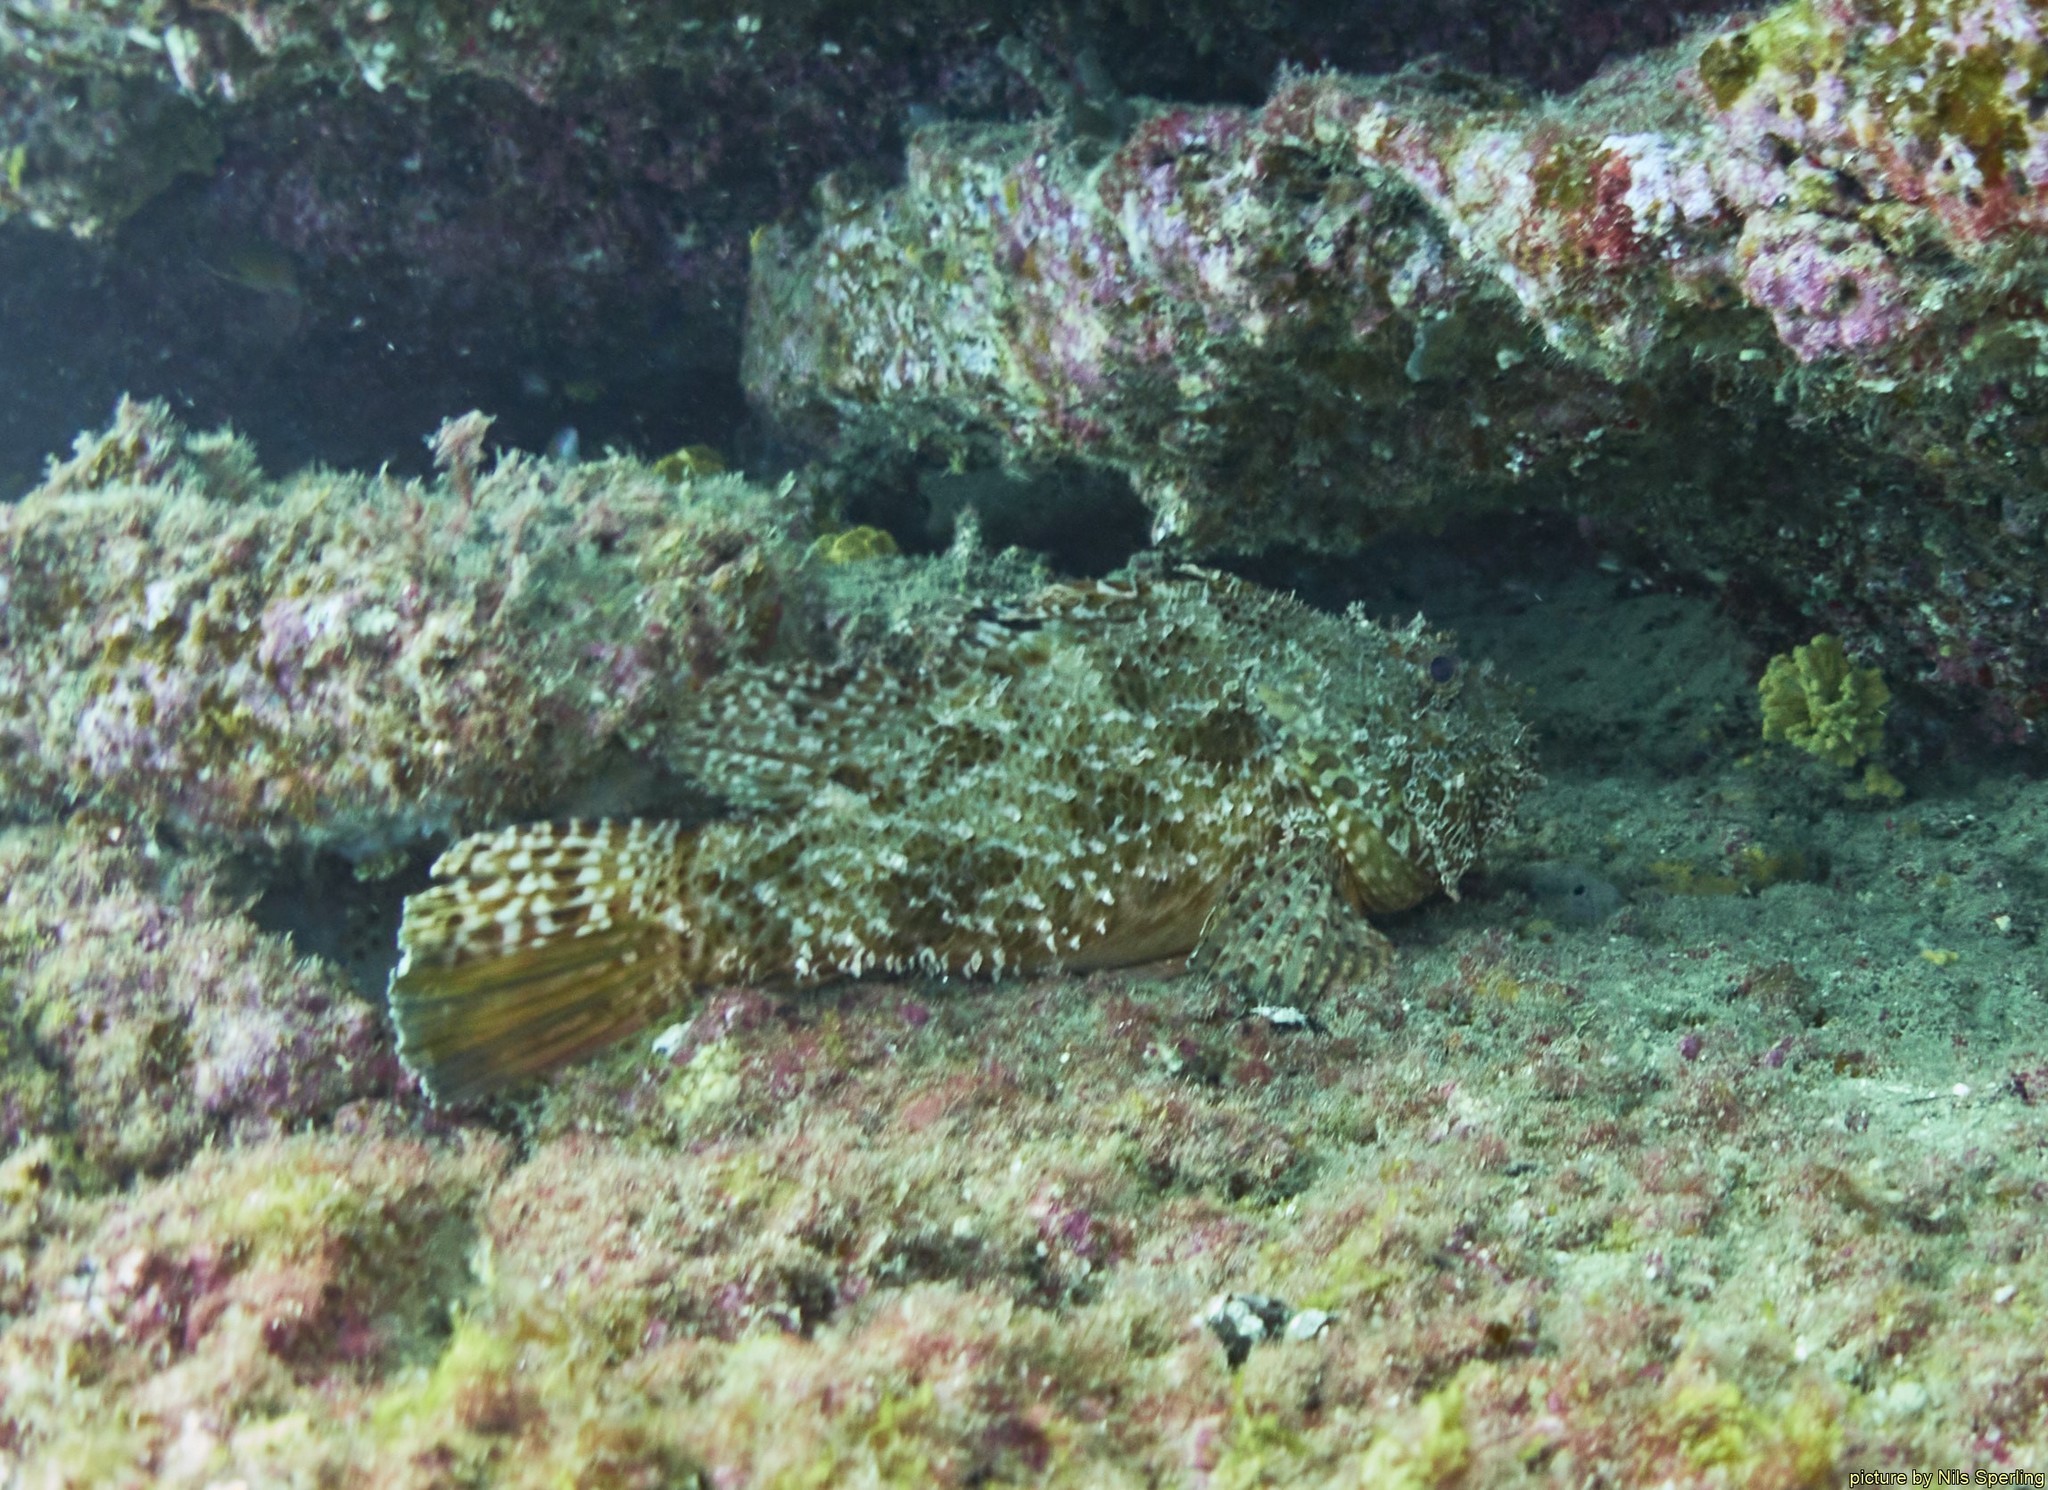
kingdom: Animalia
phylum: Chordata
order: Scorpaeniformes
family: Scorpaenidae
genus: Scorpaena
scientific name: Scorpaena scrofa
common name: Red scorpionfish
